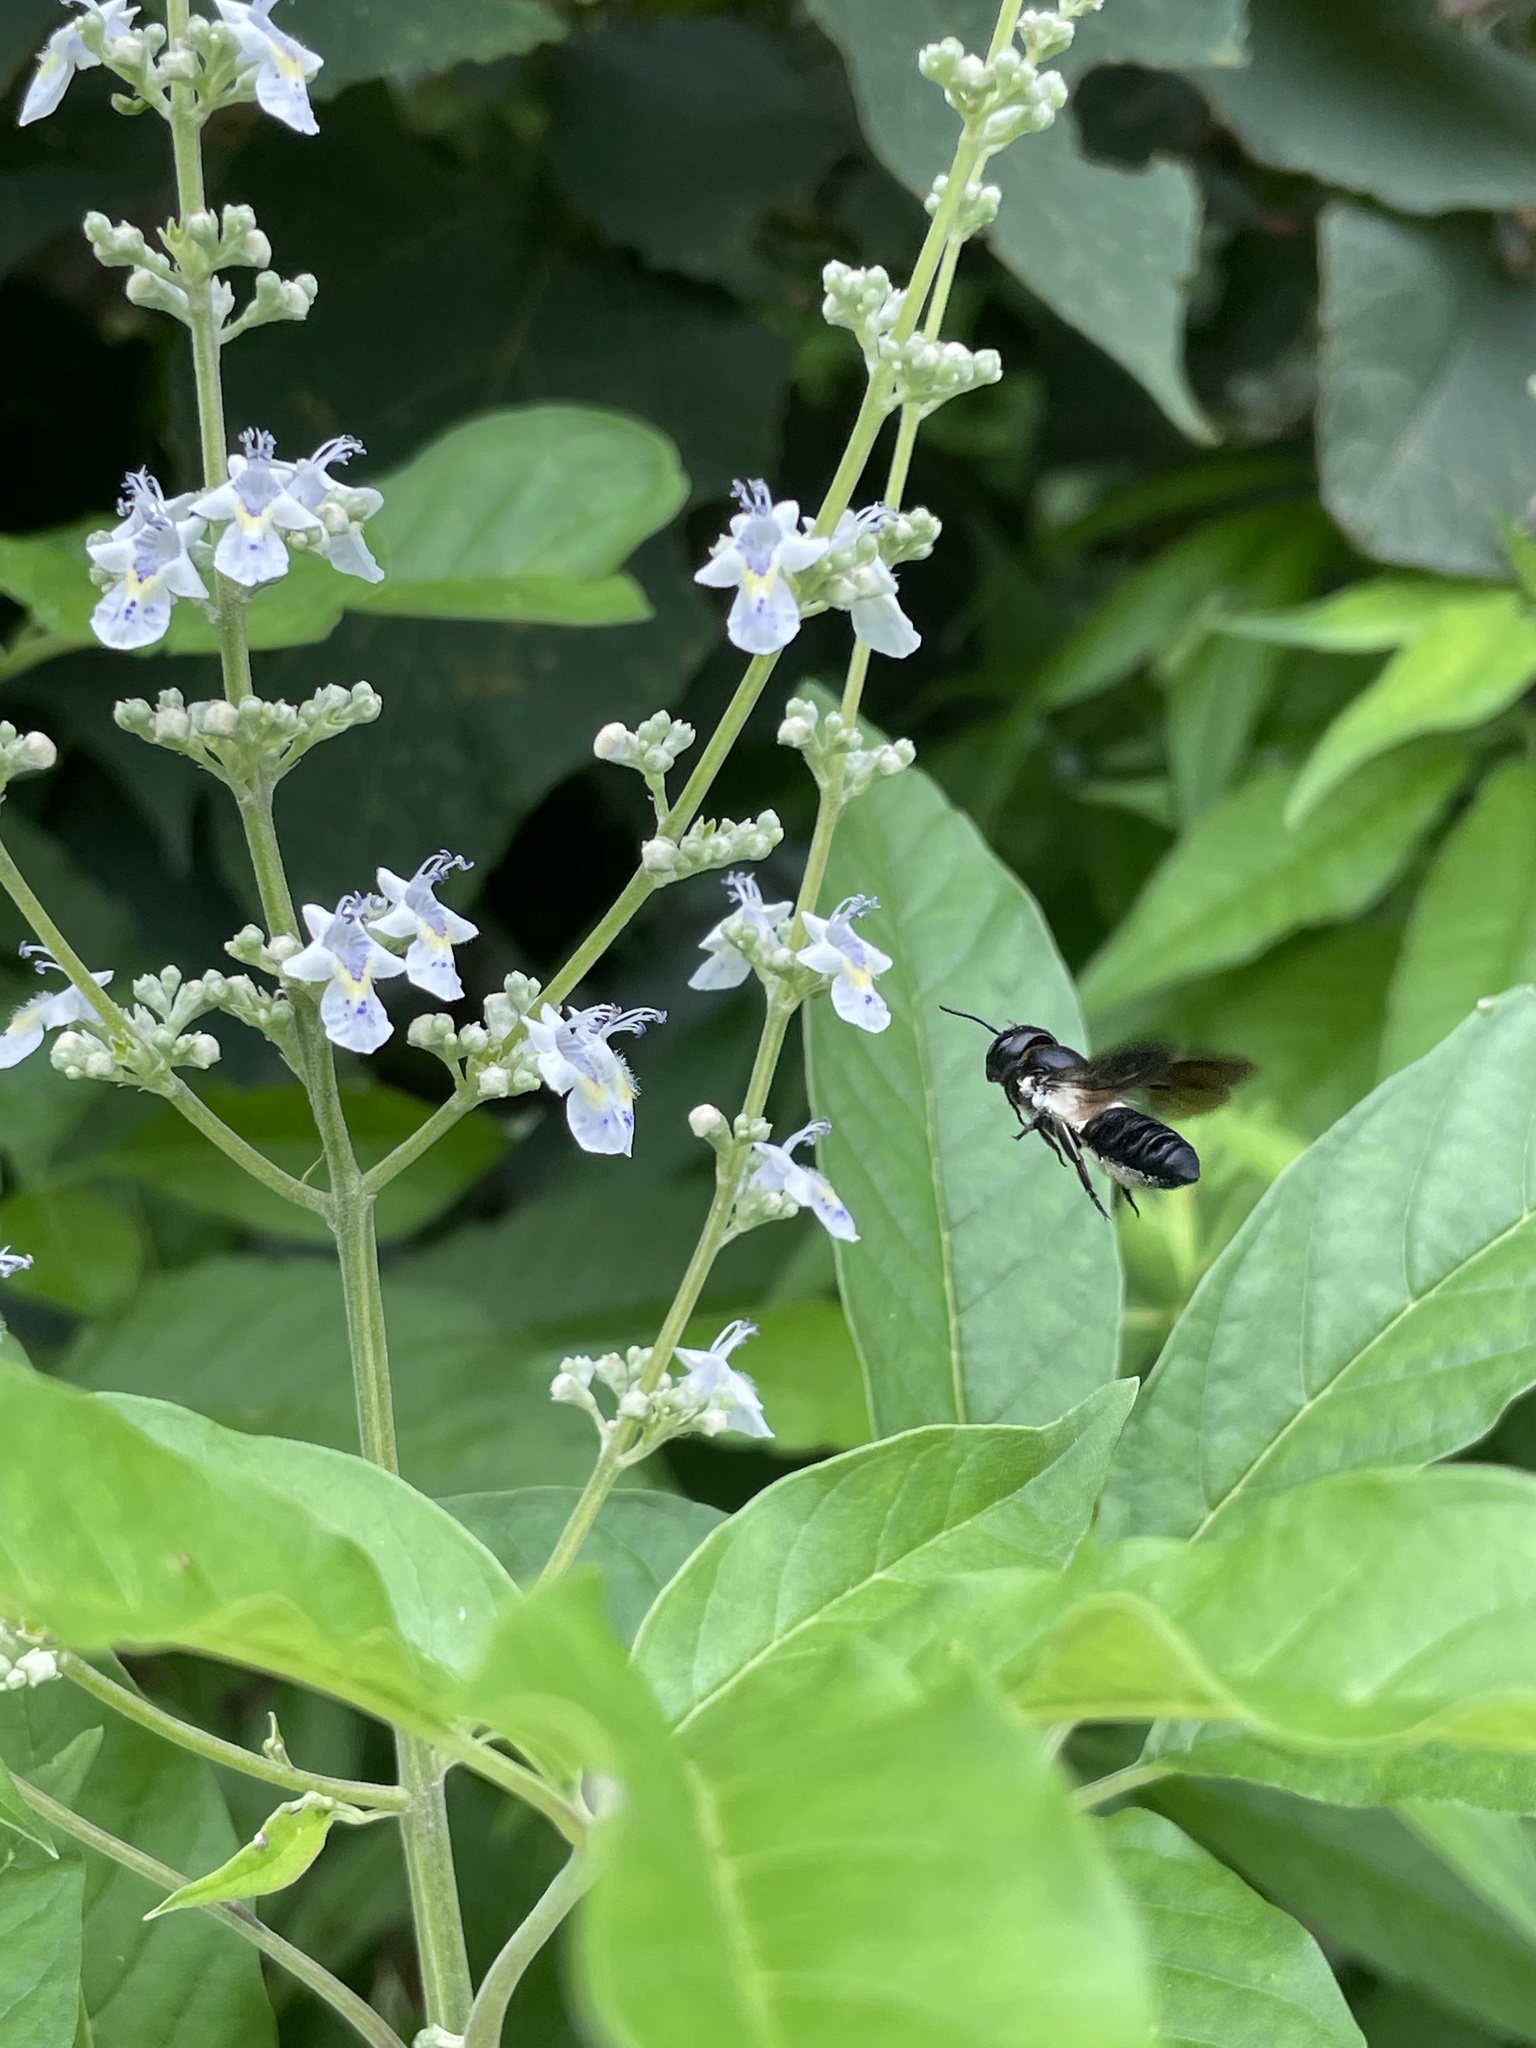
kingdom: Animalia
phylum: Arthropoda
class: Insecta
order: Hymenoptera
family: Megachilidae
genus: Megachile
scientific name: Megachile disjunctiformis
